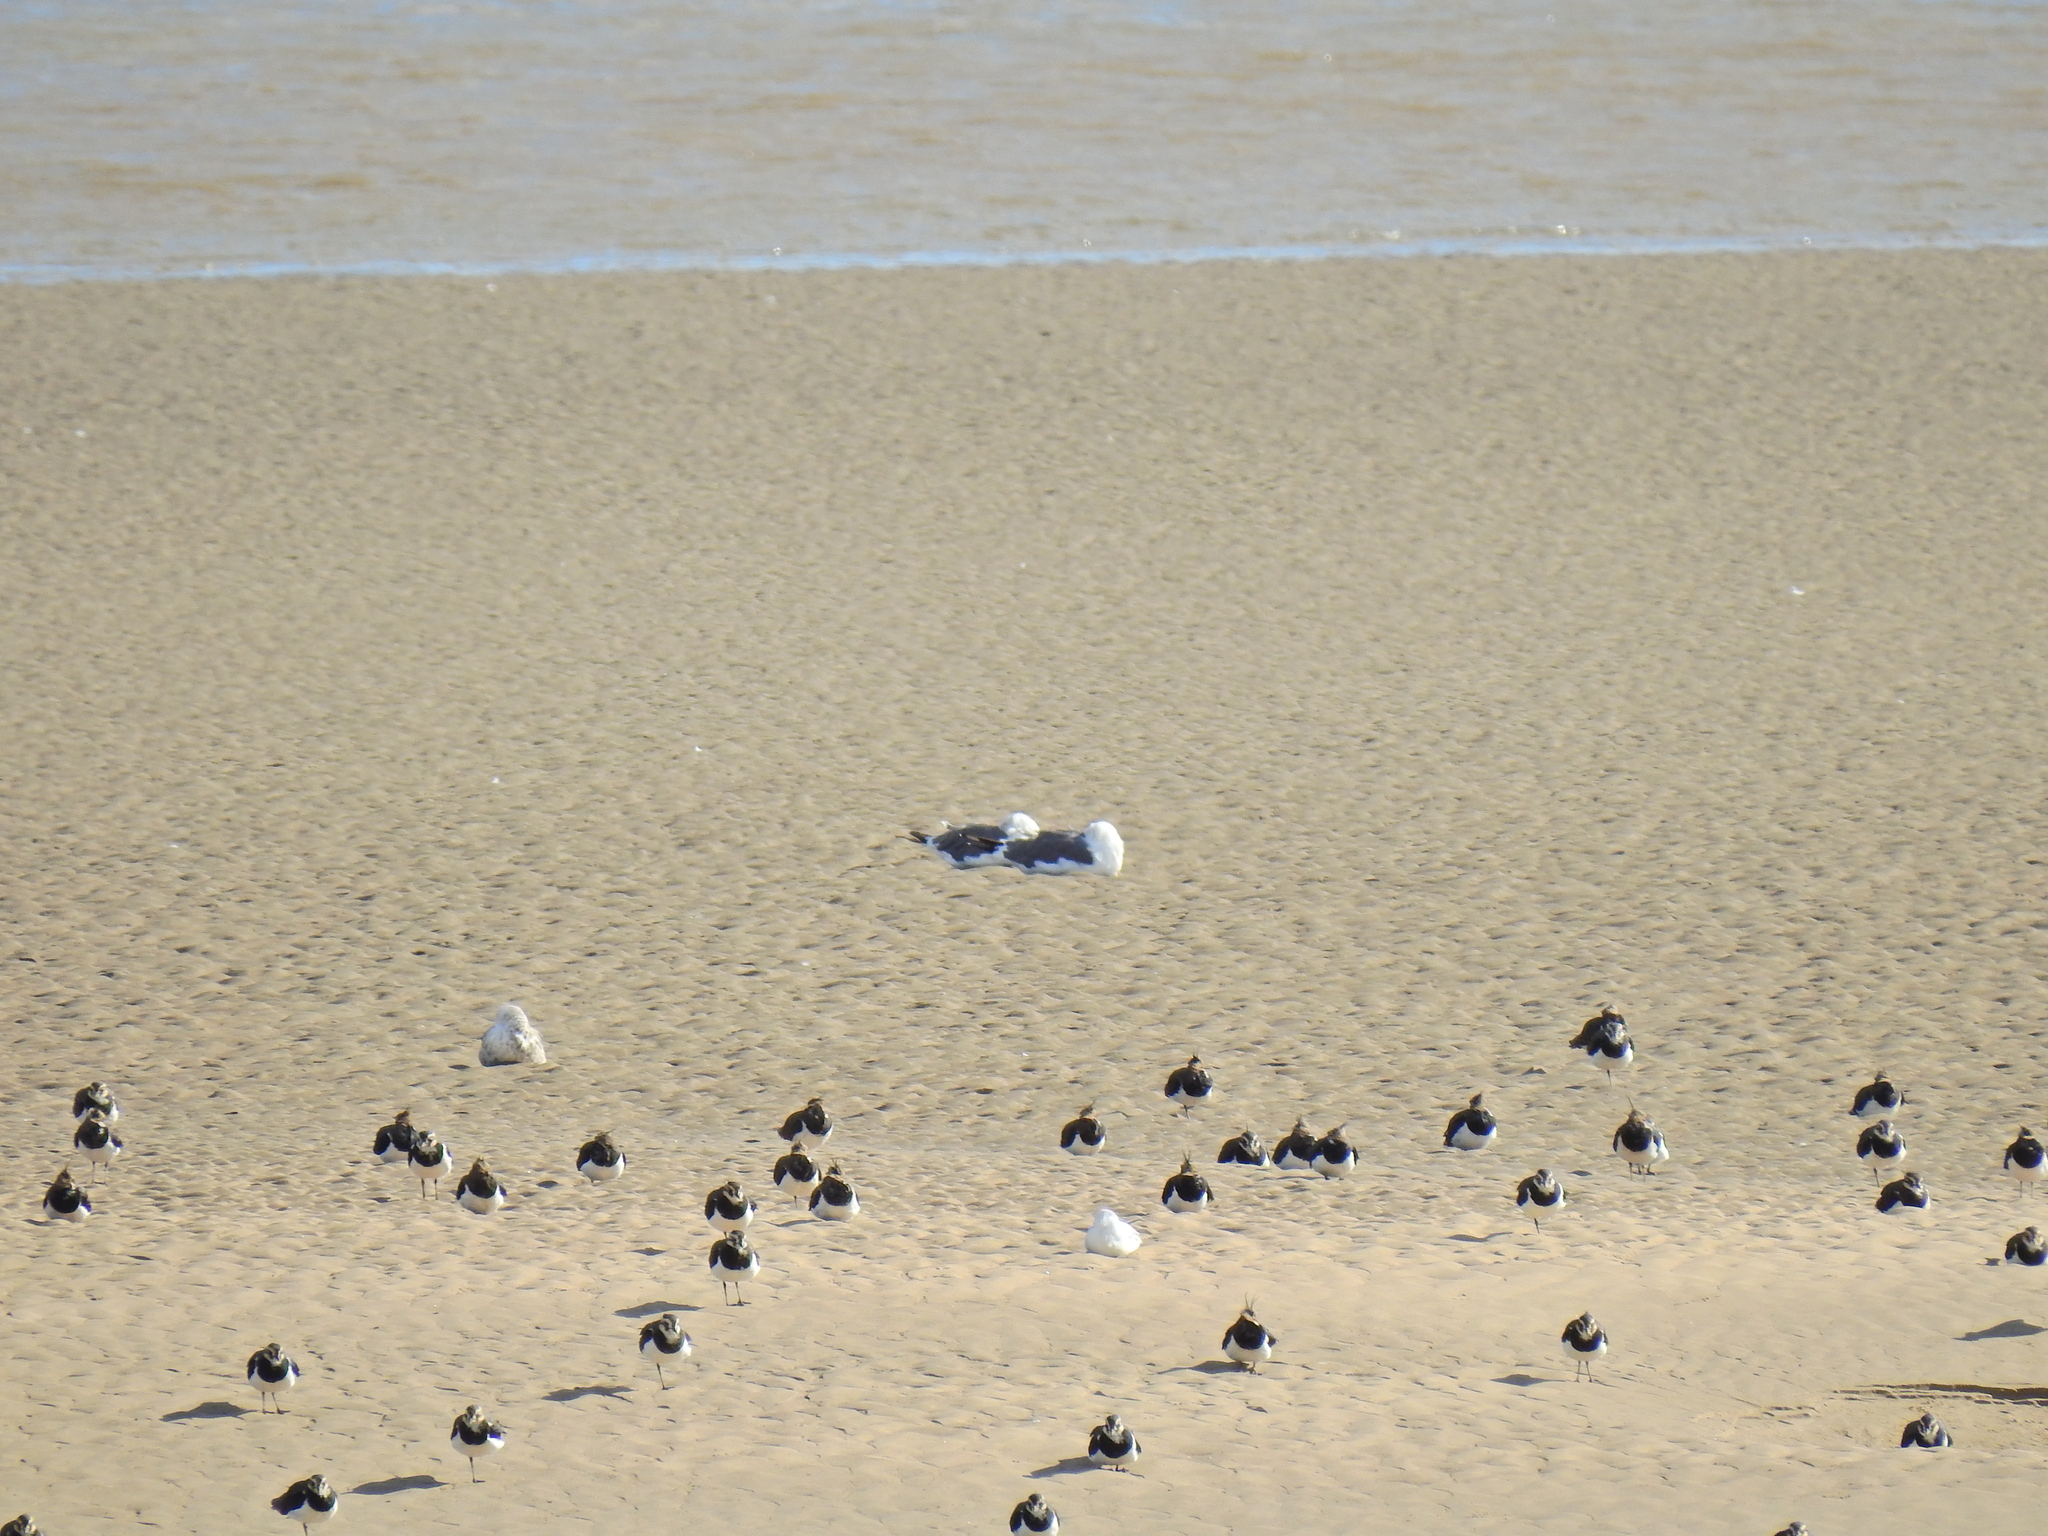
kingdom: Animalia
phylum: Chordata
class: Aves
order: Charadriiformes
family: Laridae
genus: Larus
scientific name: Larus fuscus
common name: Lesser black-backed gull
